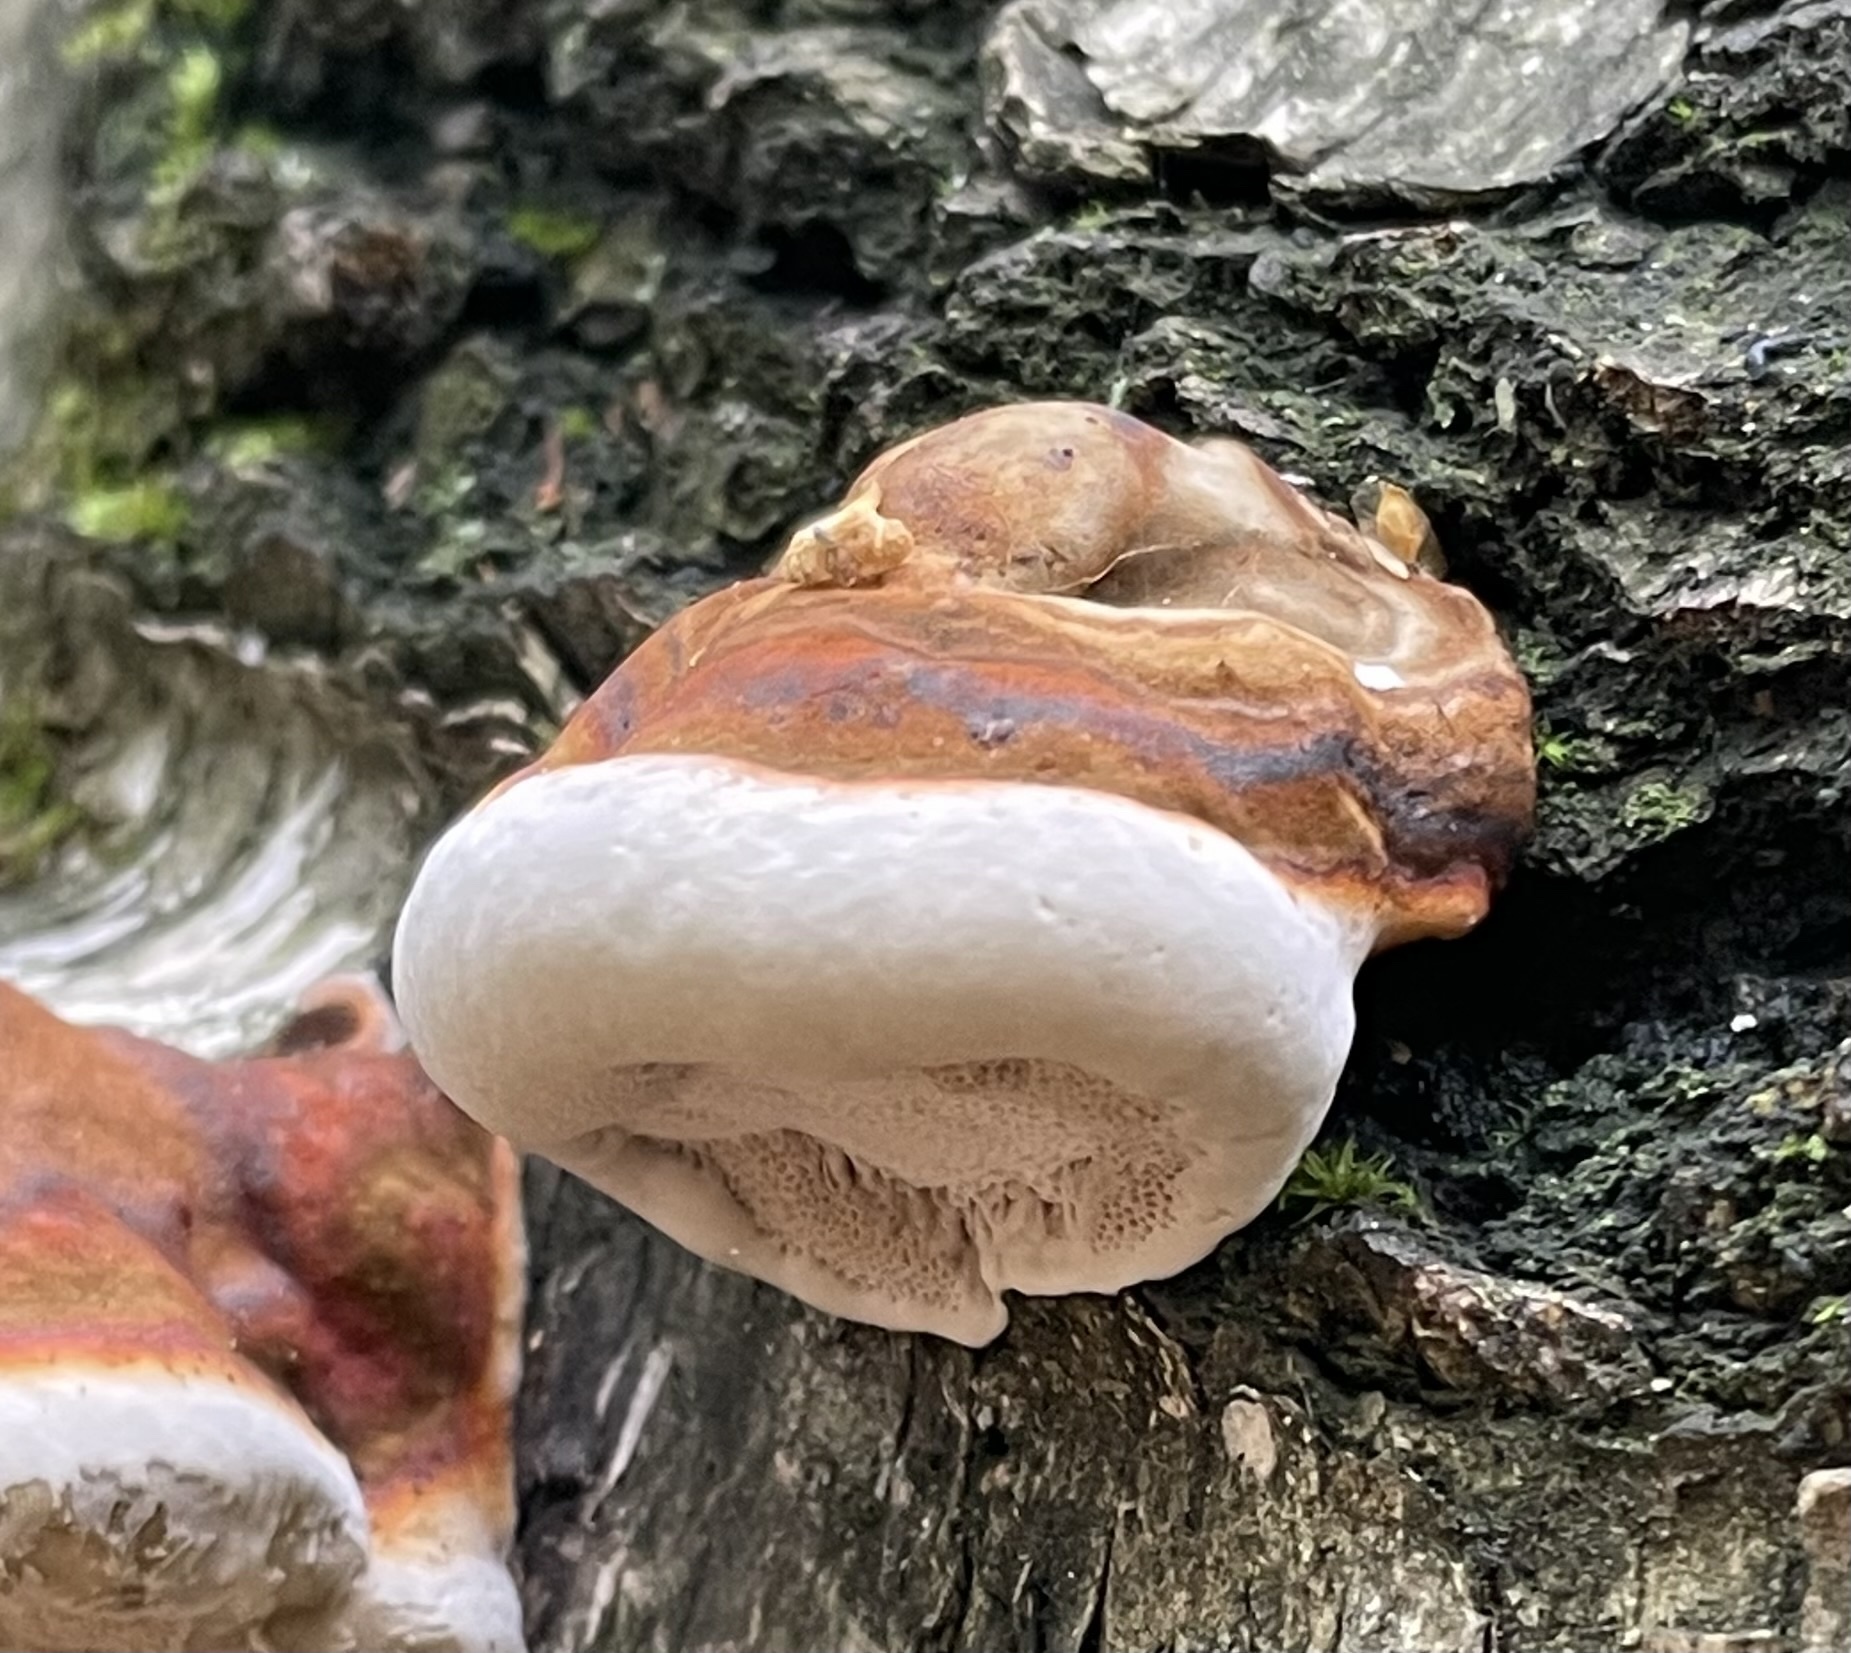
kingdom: Fungi
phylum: Basidiomycota
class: Agaricomycetes
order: Polyporales
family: Fomitopsidaceae
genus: Fomitopsis
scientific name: Fomitopsis pinicola
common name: Red-belted bracket
